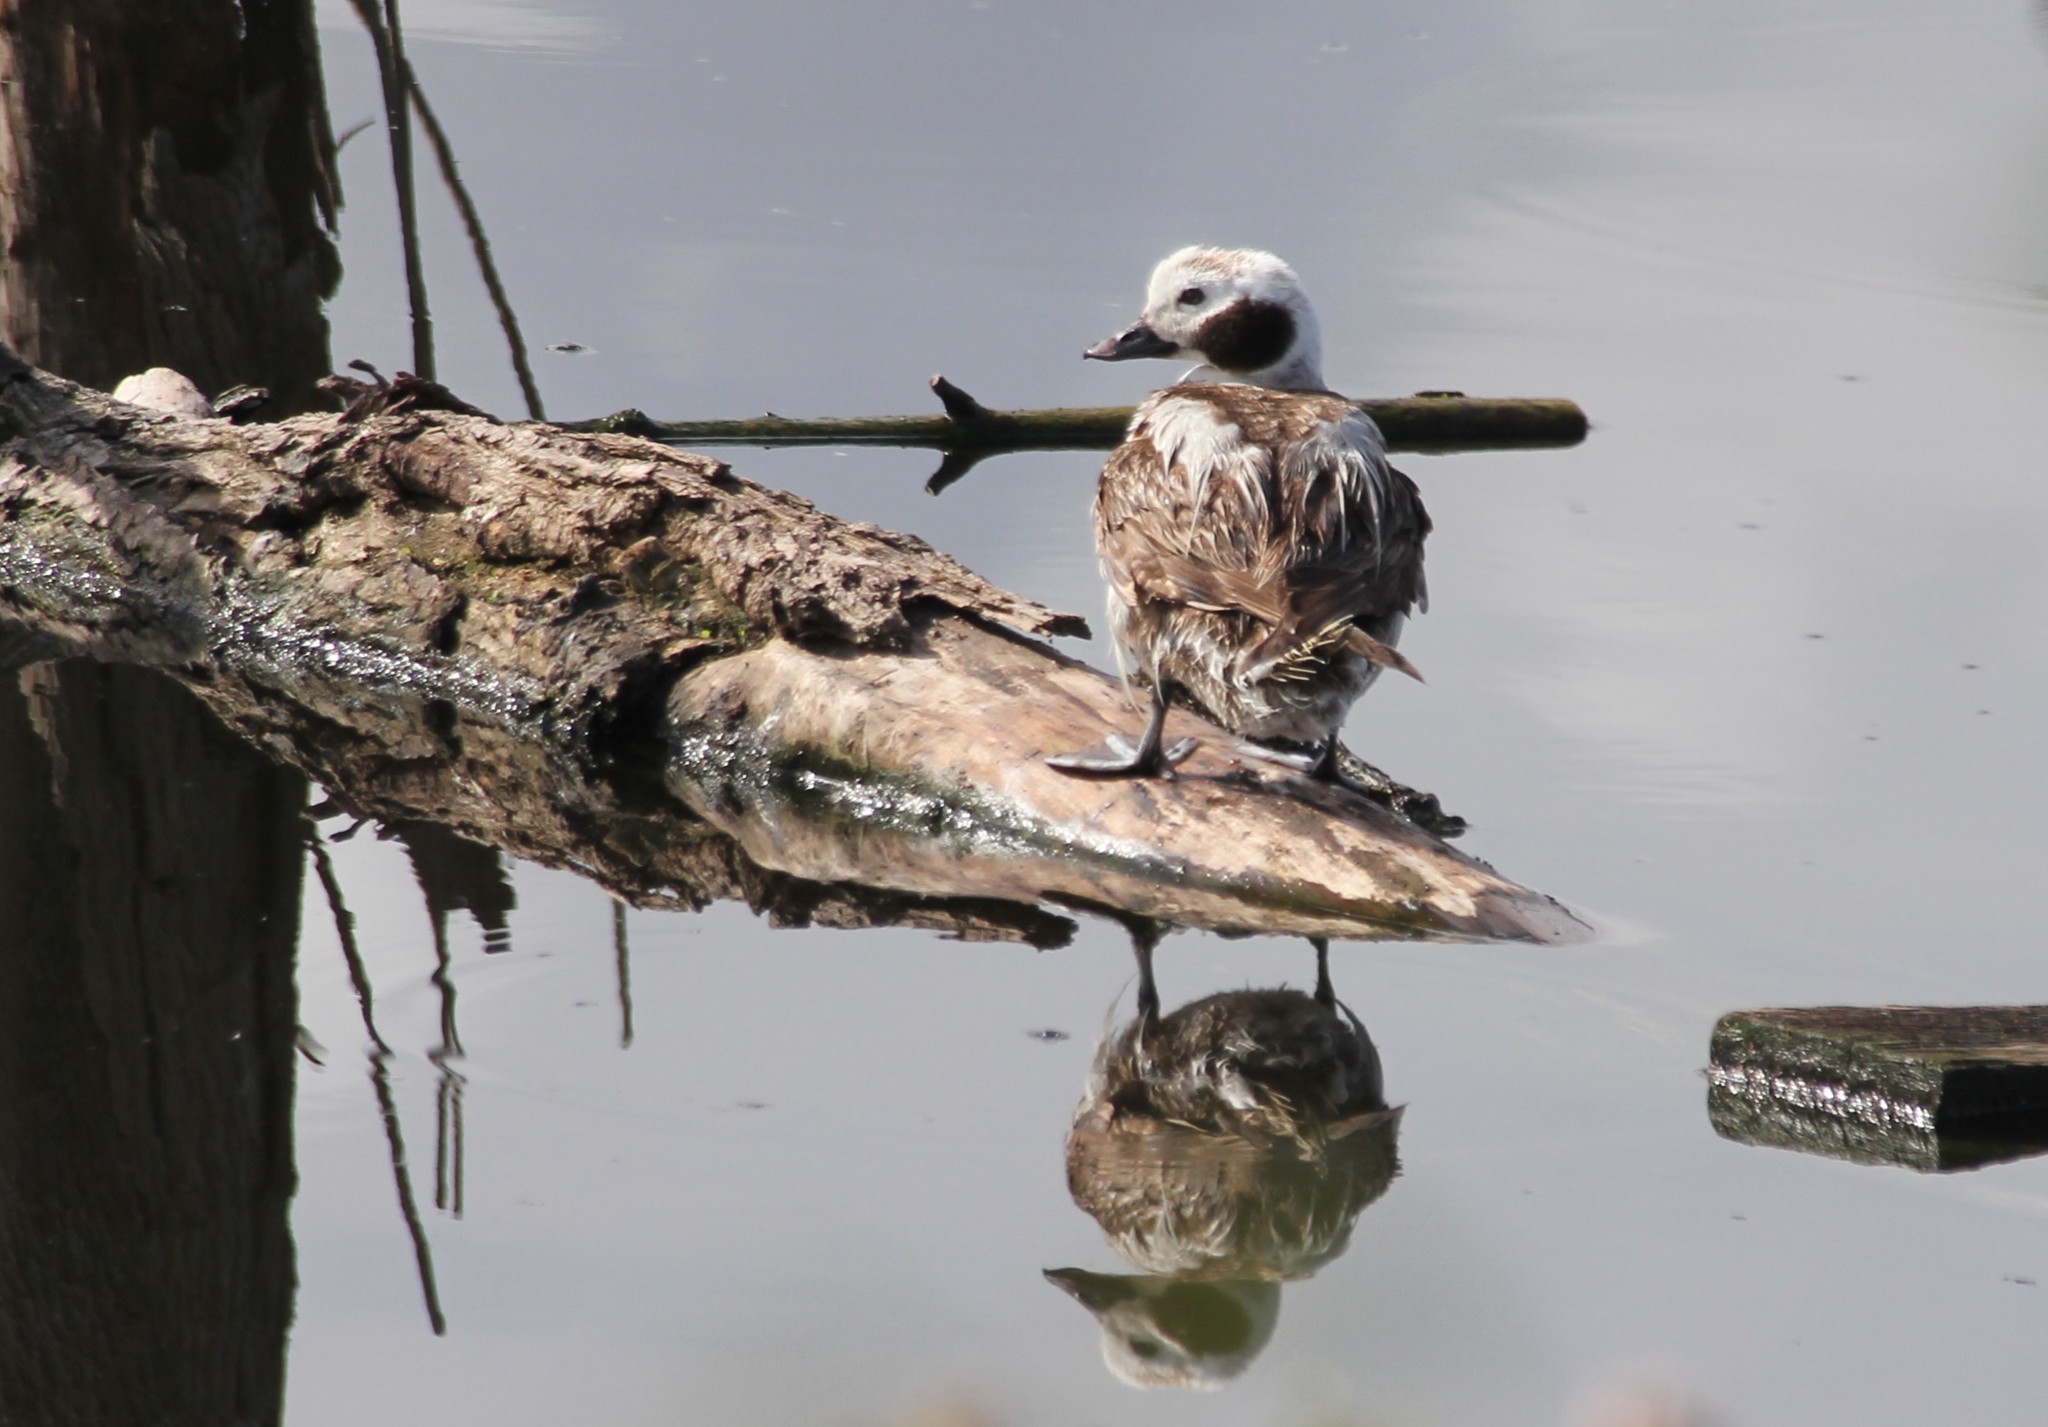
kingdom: Animalia
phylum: Chordata
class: Aves
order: Anseriformes
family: Anatidae
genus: Clangula
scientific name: Clangula hyemalis
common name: Long-tailed duck
